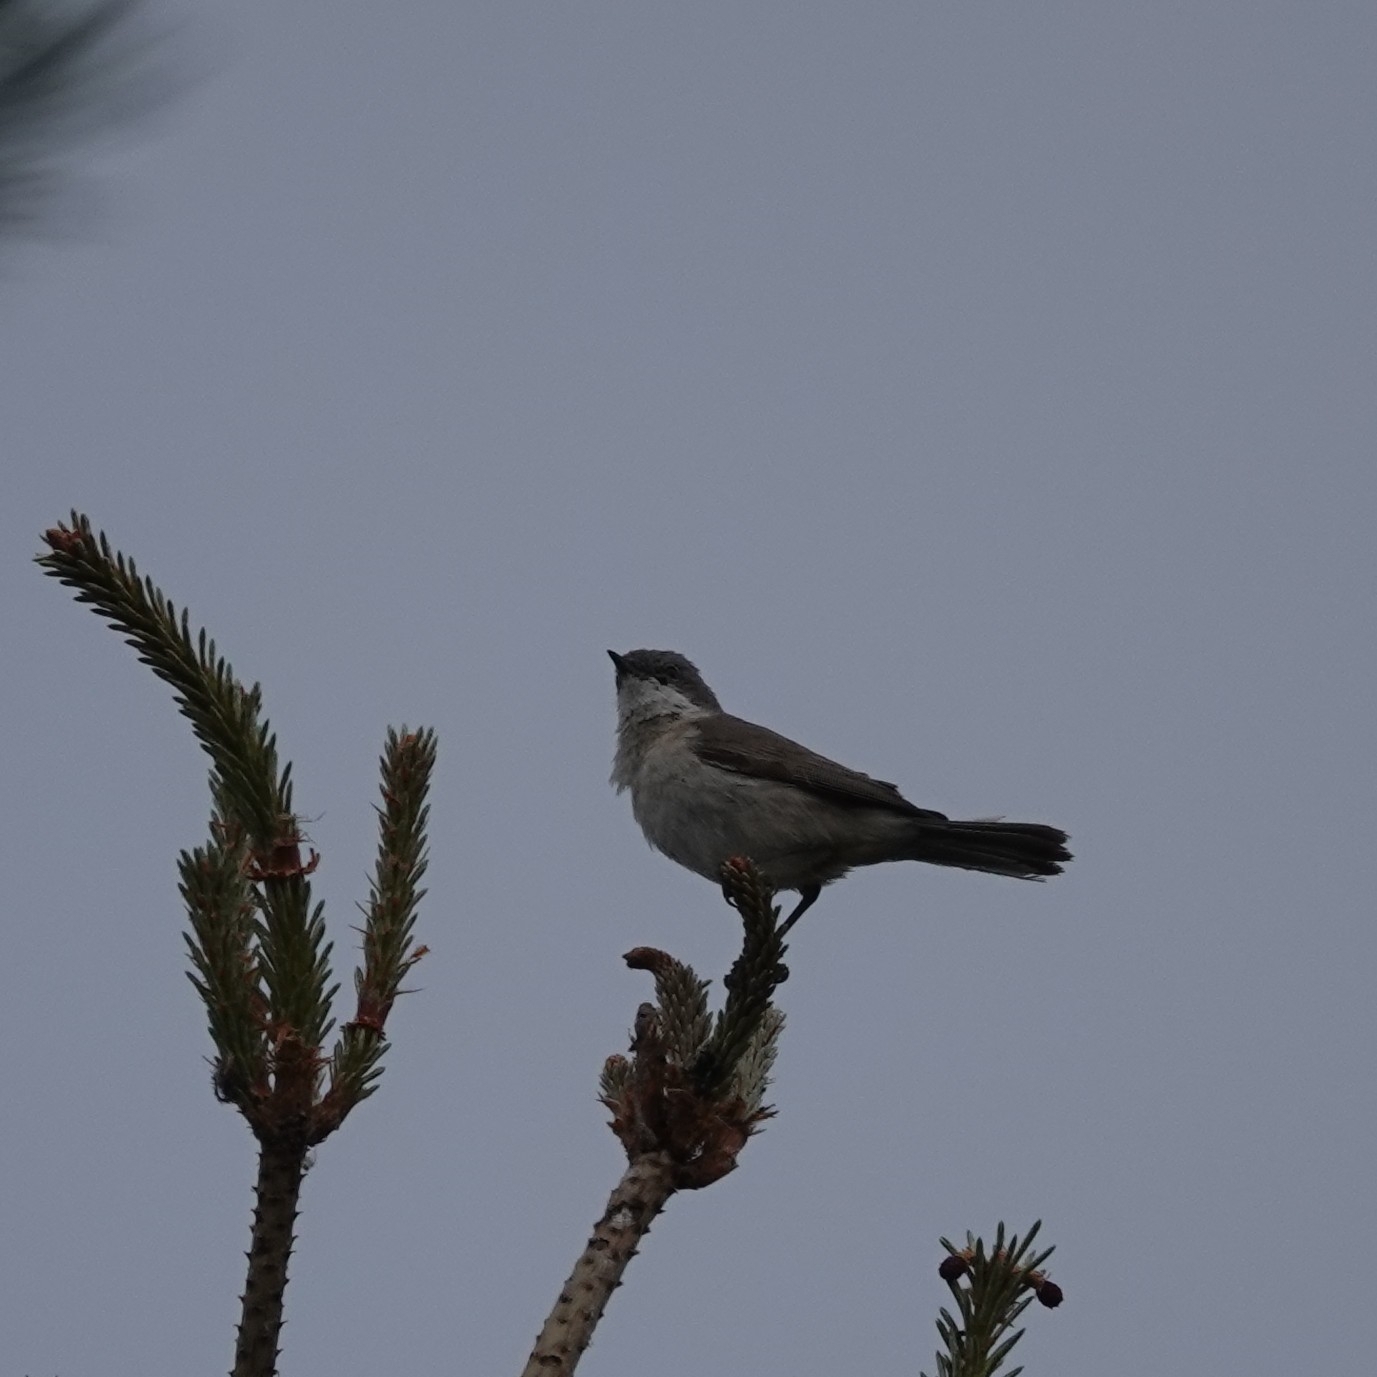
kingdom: Animalia
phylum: Chordata
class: Aves
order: Passeriformes
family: Sylviidae
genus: Sylvia
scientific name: Sylvia curruca
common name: Lesser whitethroat
